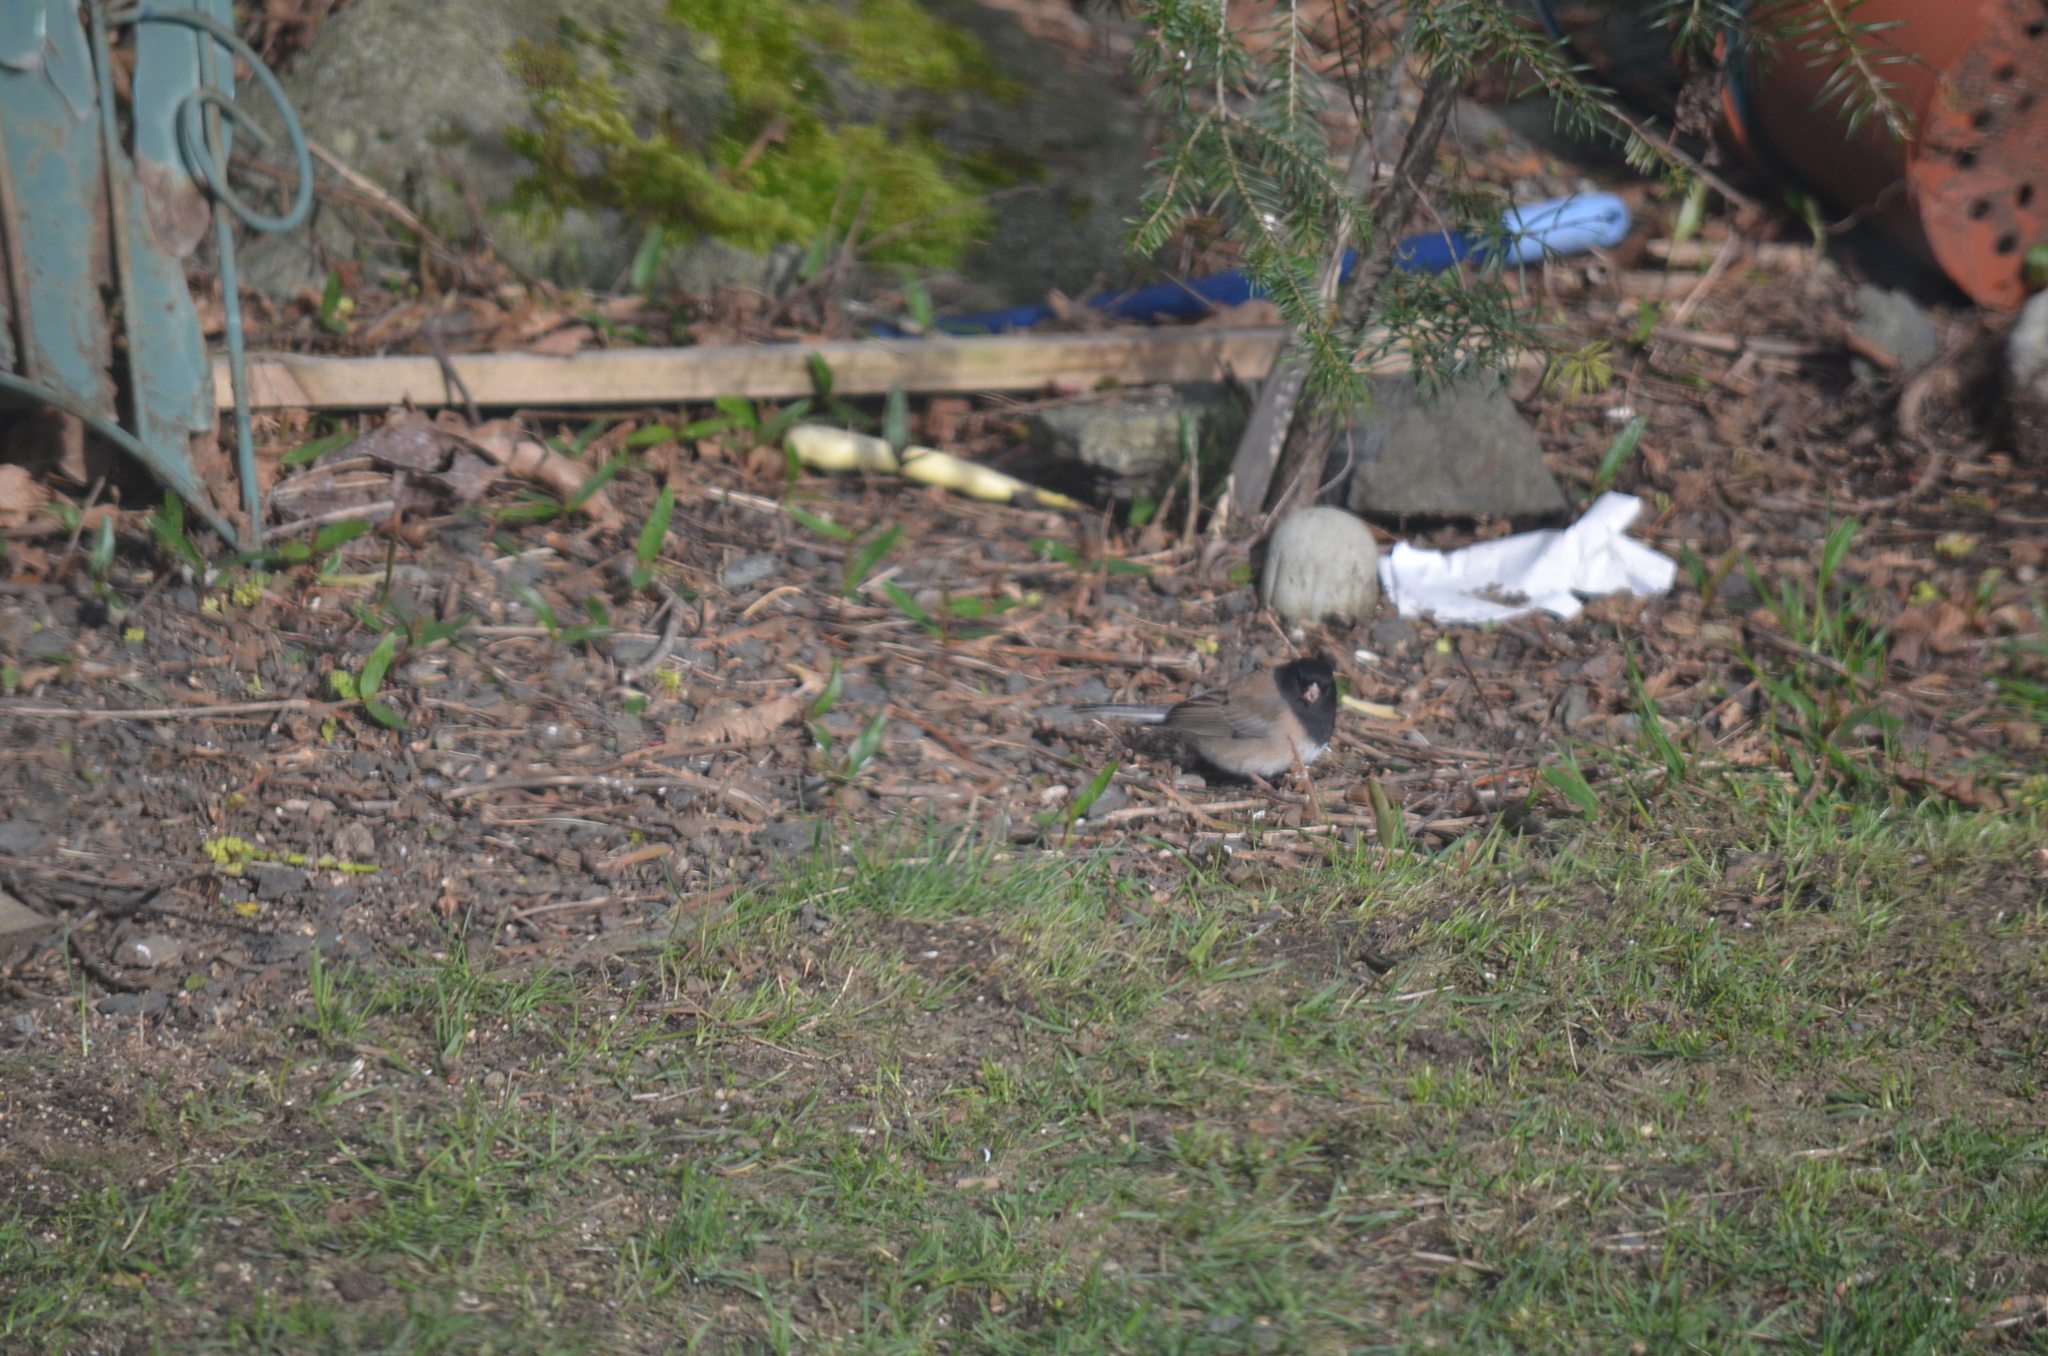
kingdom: Animalia
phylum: Chordata
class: Aves
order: Passeriformes
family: Passerellidae
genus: Junco
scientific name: Junco hyemalis
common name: Dark-eyed junco
